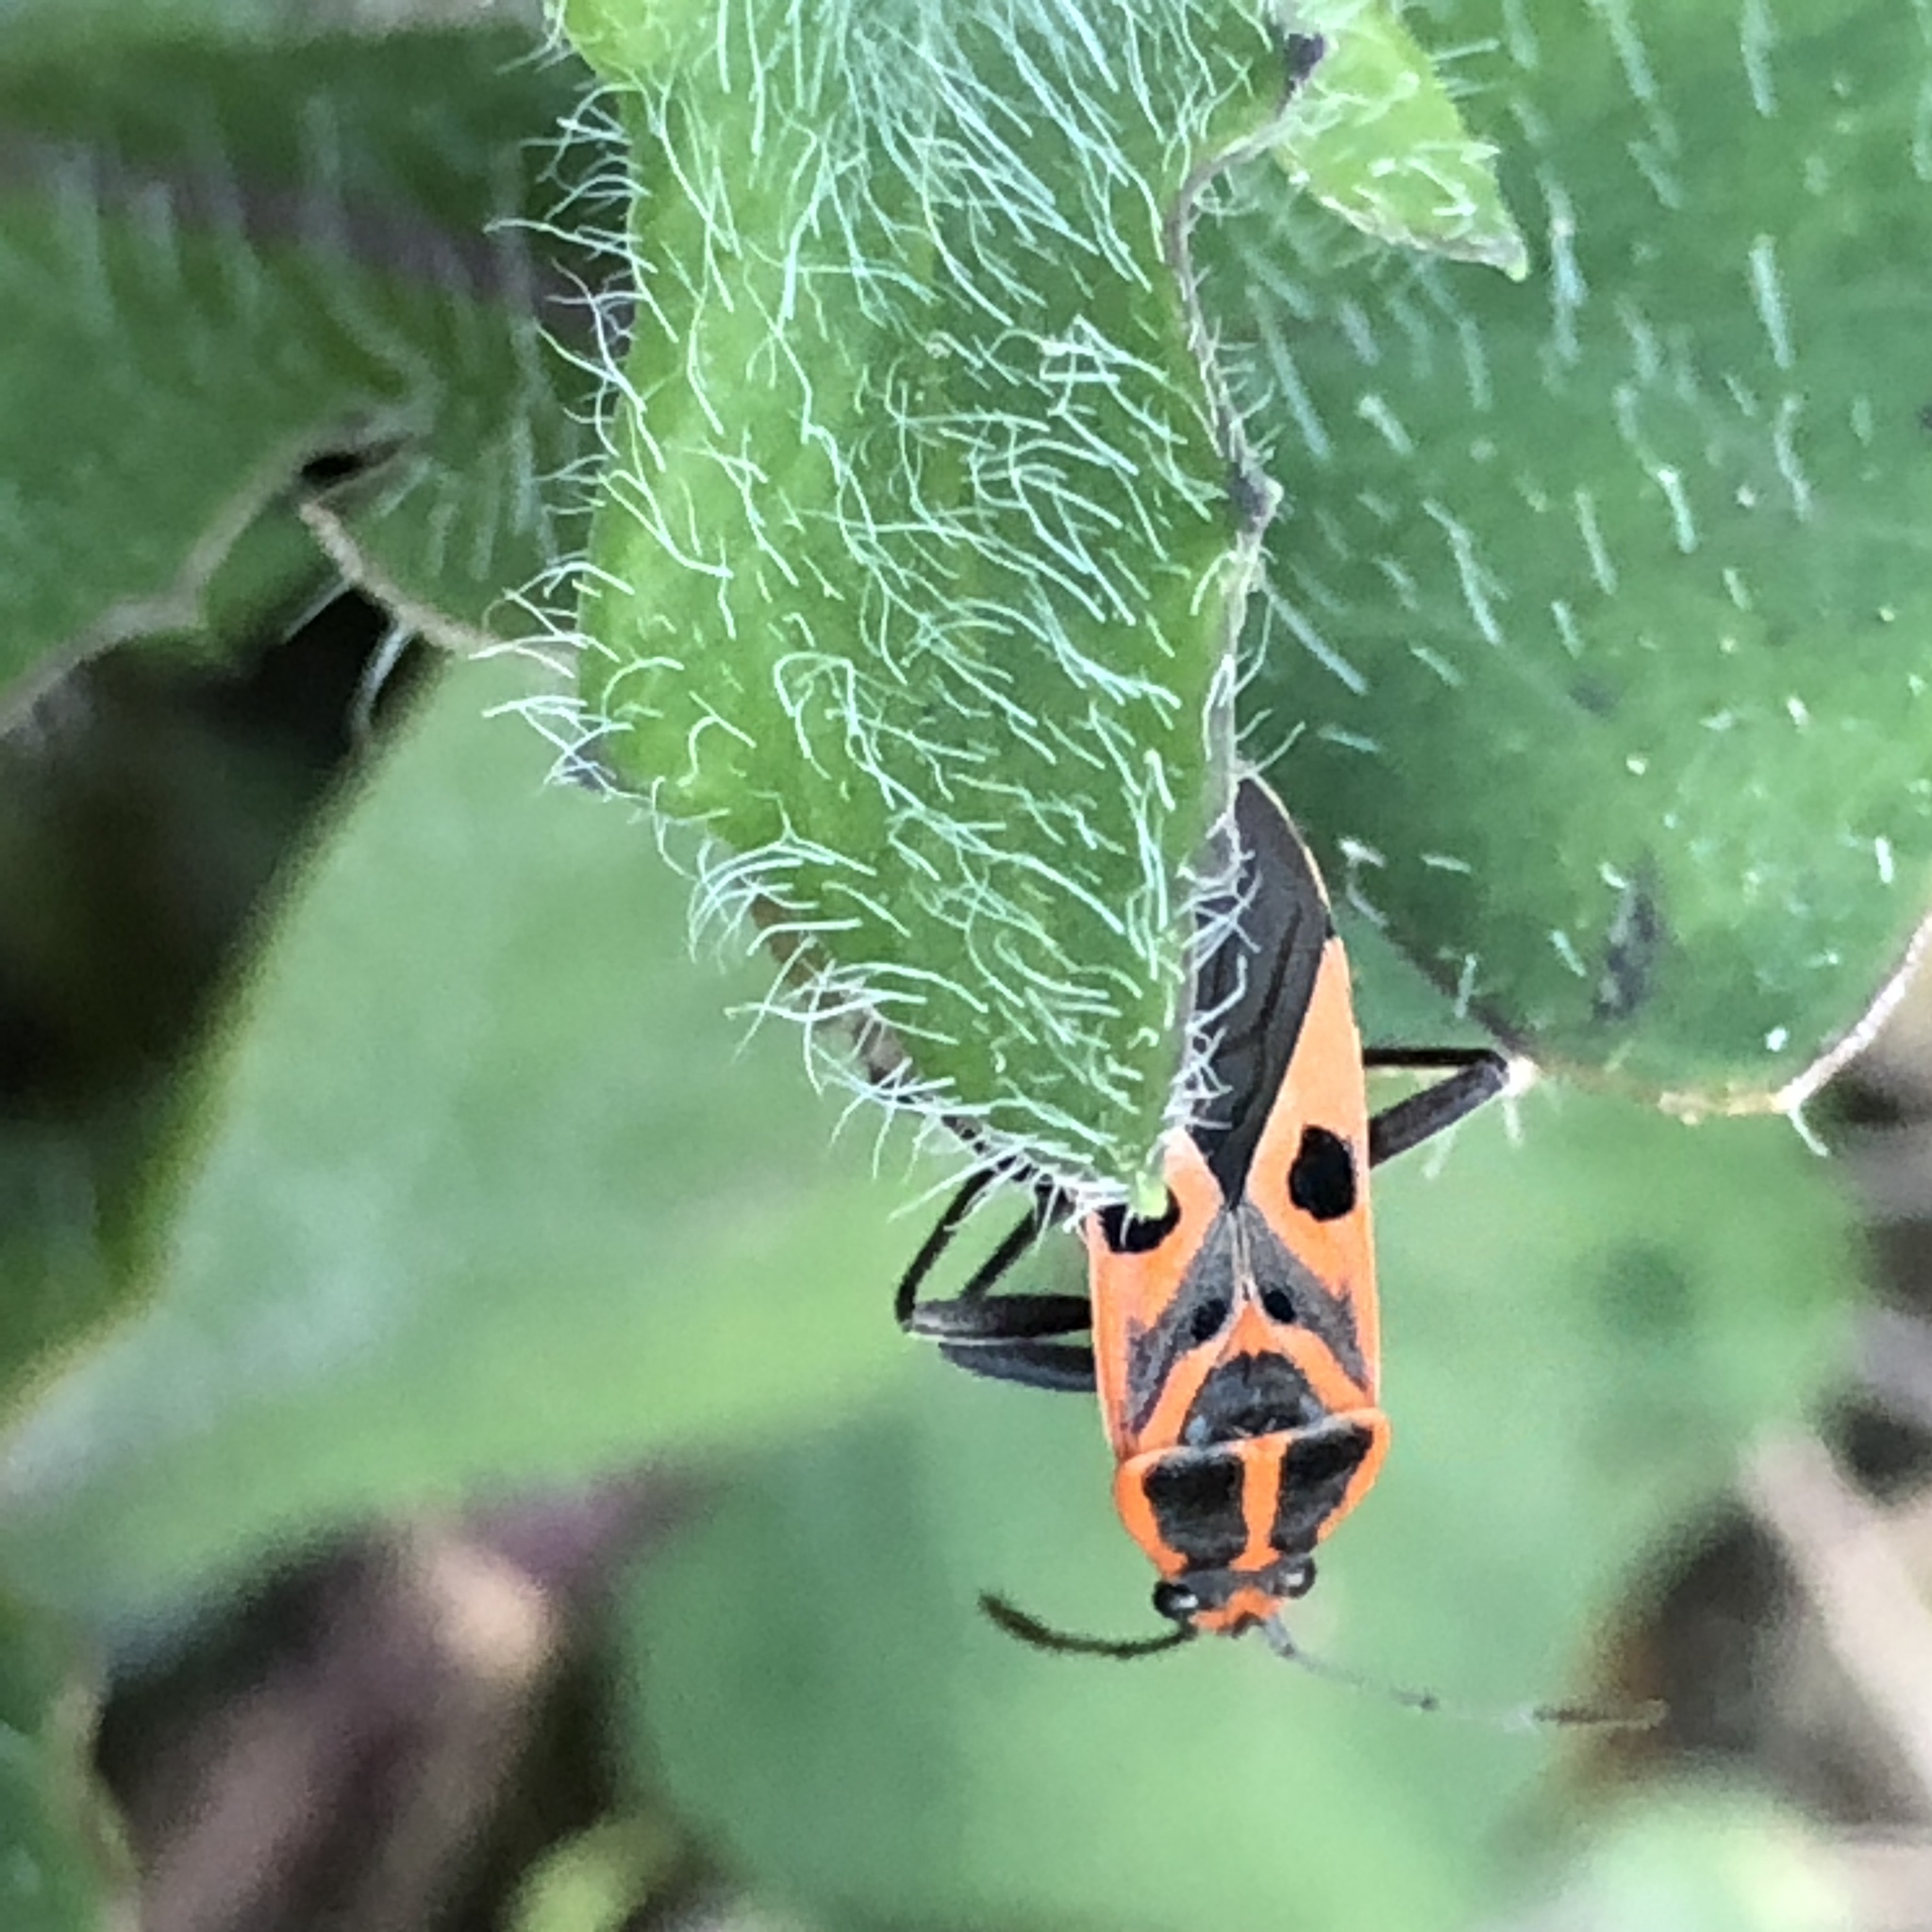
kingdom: Animalia
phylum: Arthropoda
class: Insecta
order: Hemiptera
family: Lygaeidae
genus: Spilostethus
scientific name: Spilostethus hospes
